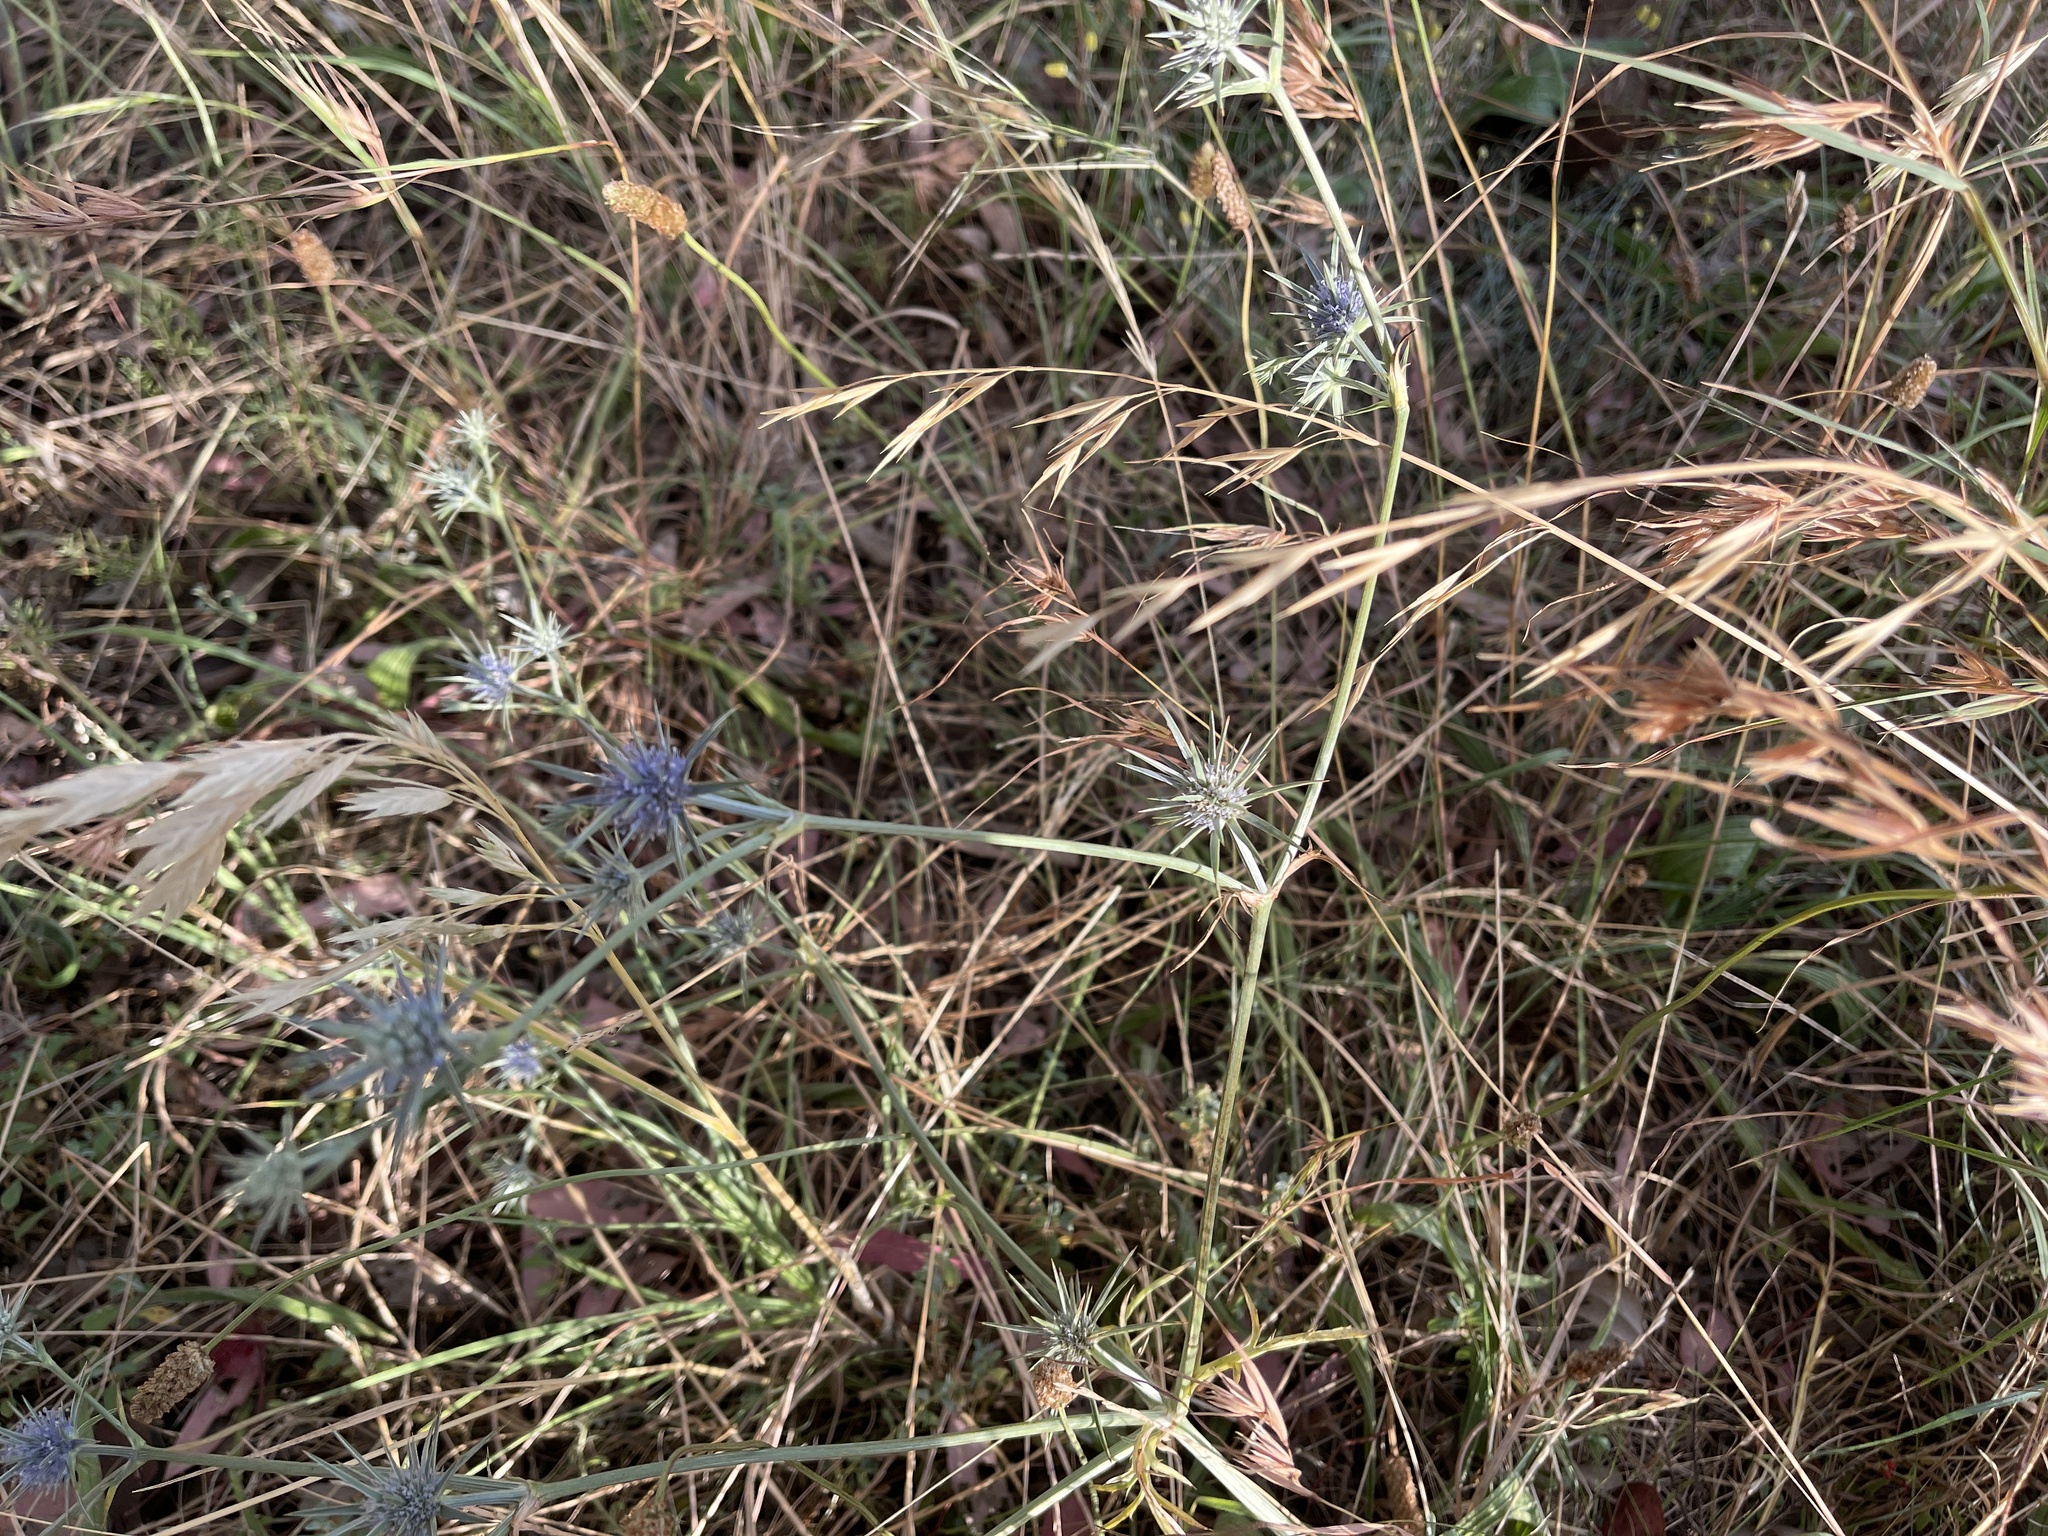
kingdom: Plantae
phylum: Tracheophyta
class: Magnoliopsida
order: Apiales
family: Apiaceae
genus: Eryngium
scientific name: Eryngium ovinum
